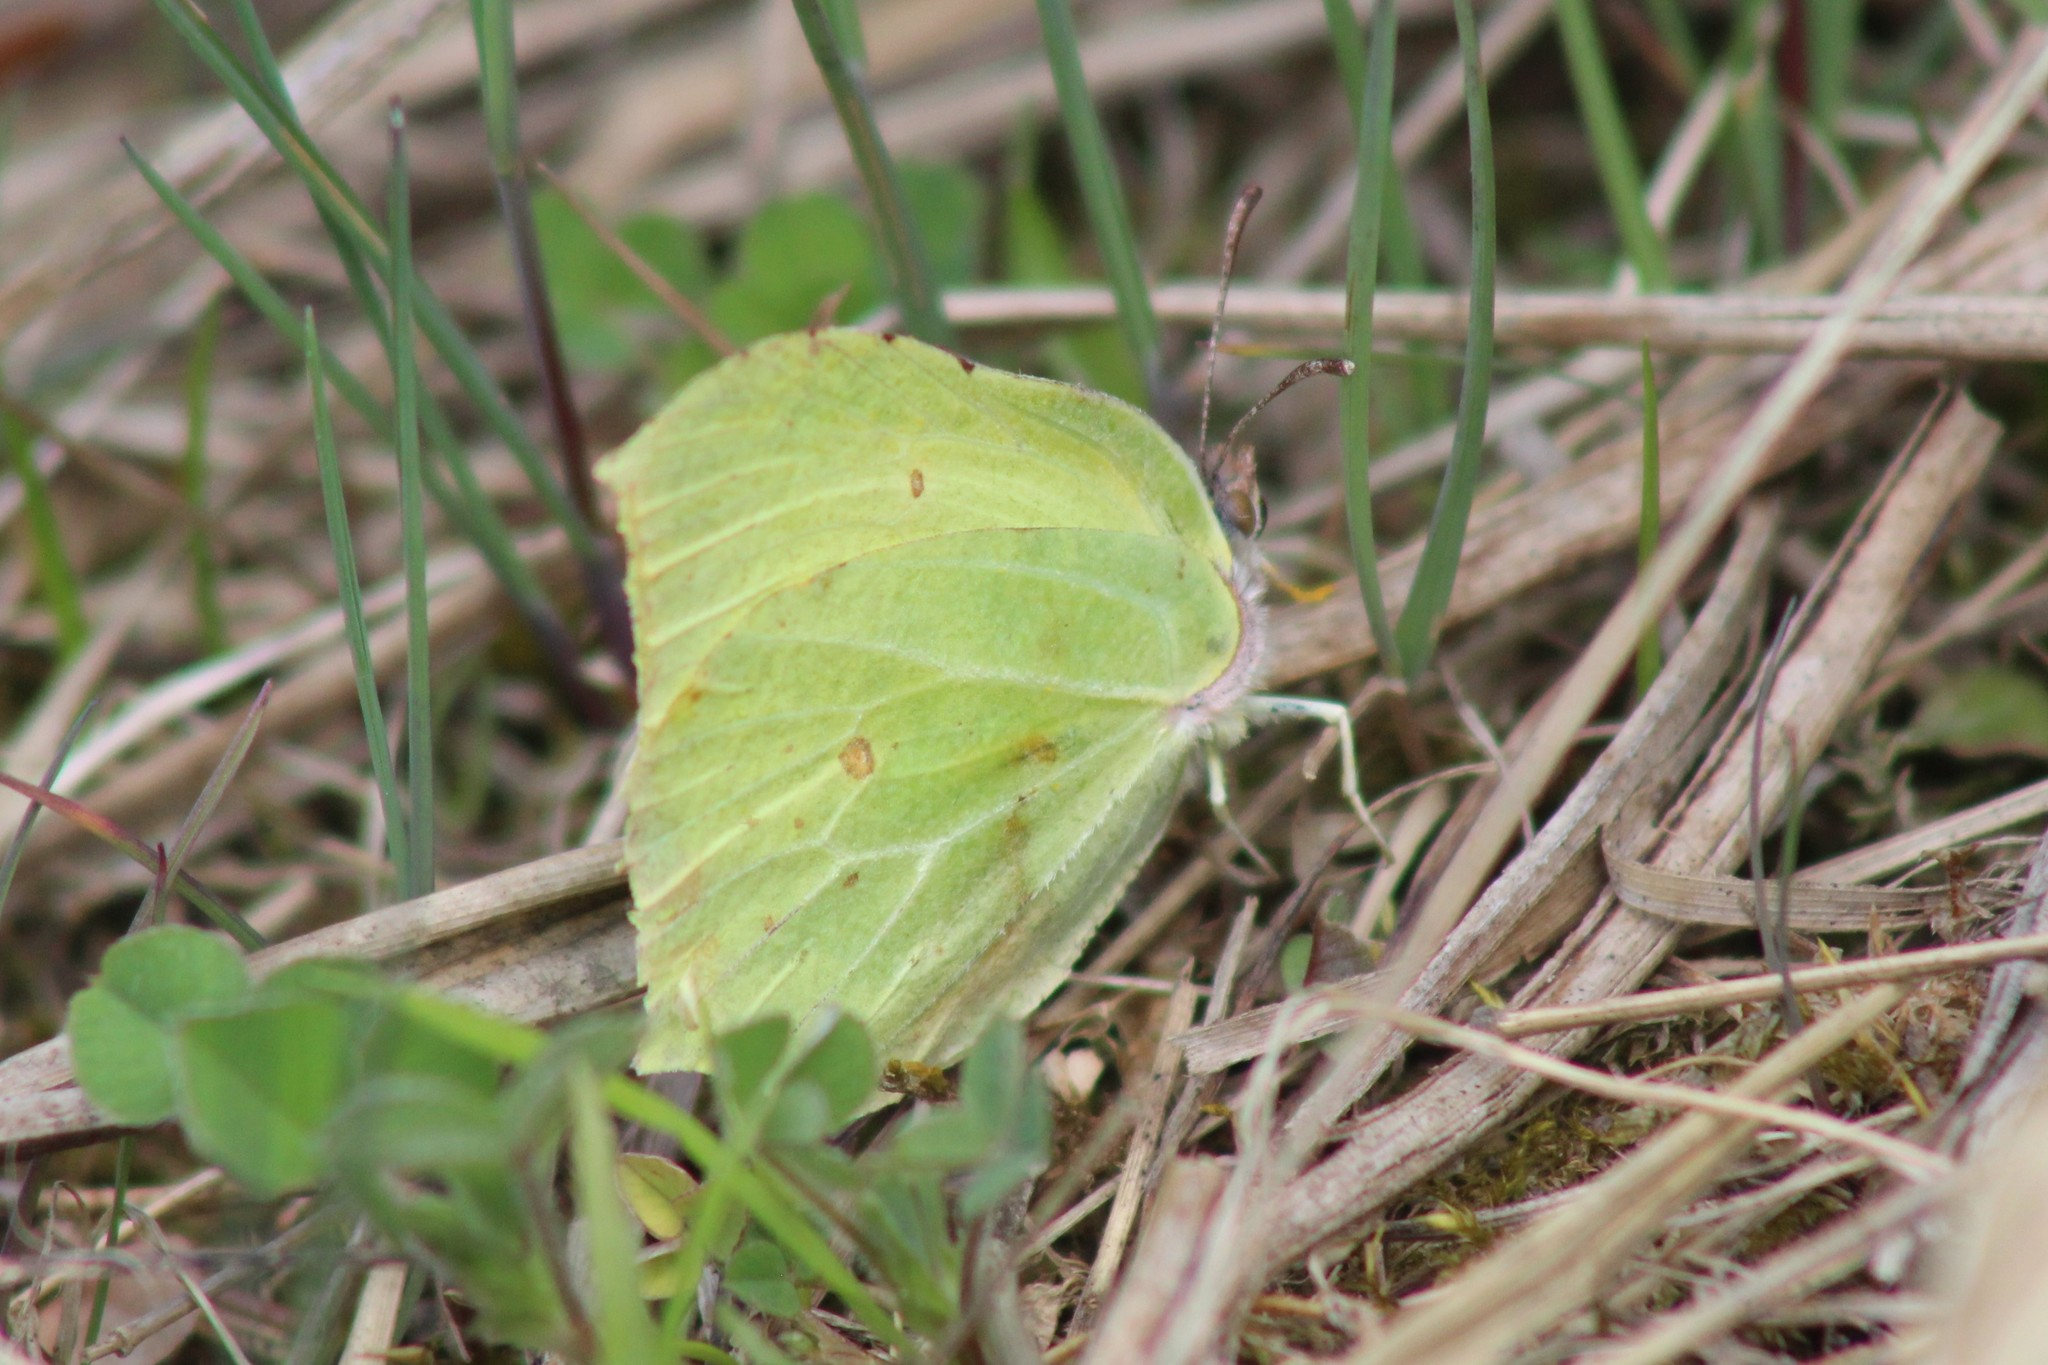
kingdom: Animalia
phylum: Arthropoda
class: Insecta
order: Lepidoptera
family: Pieridae
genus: Gonepteryx
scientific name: Gonepteryx rhamni
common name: Brimstone
